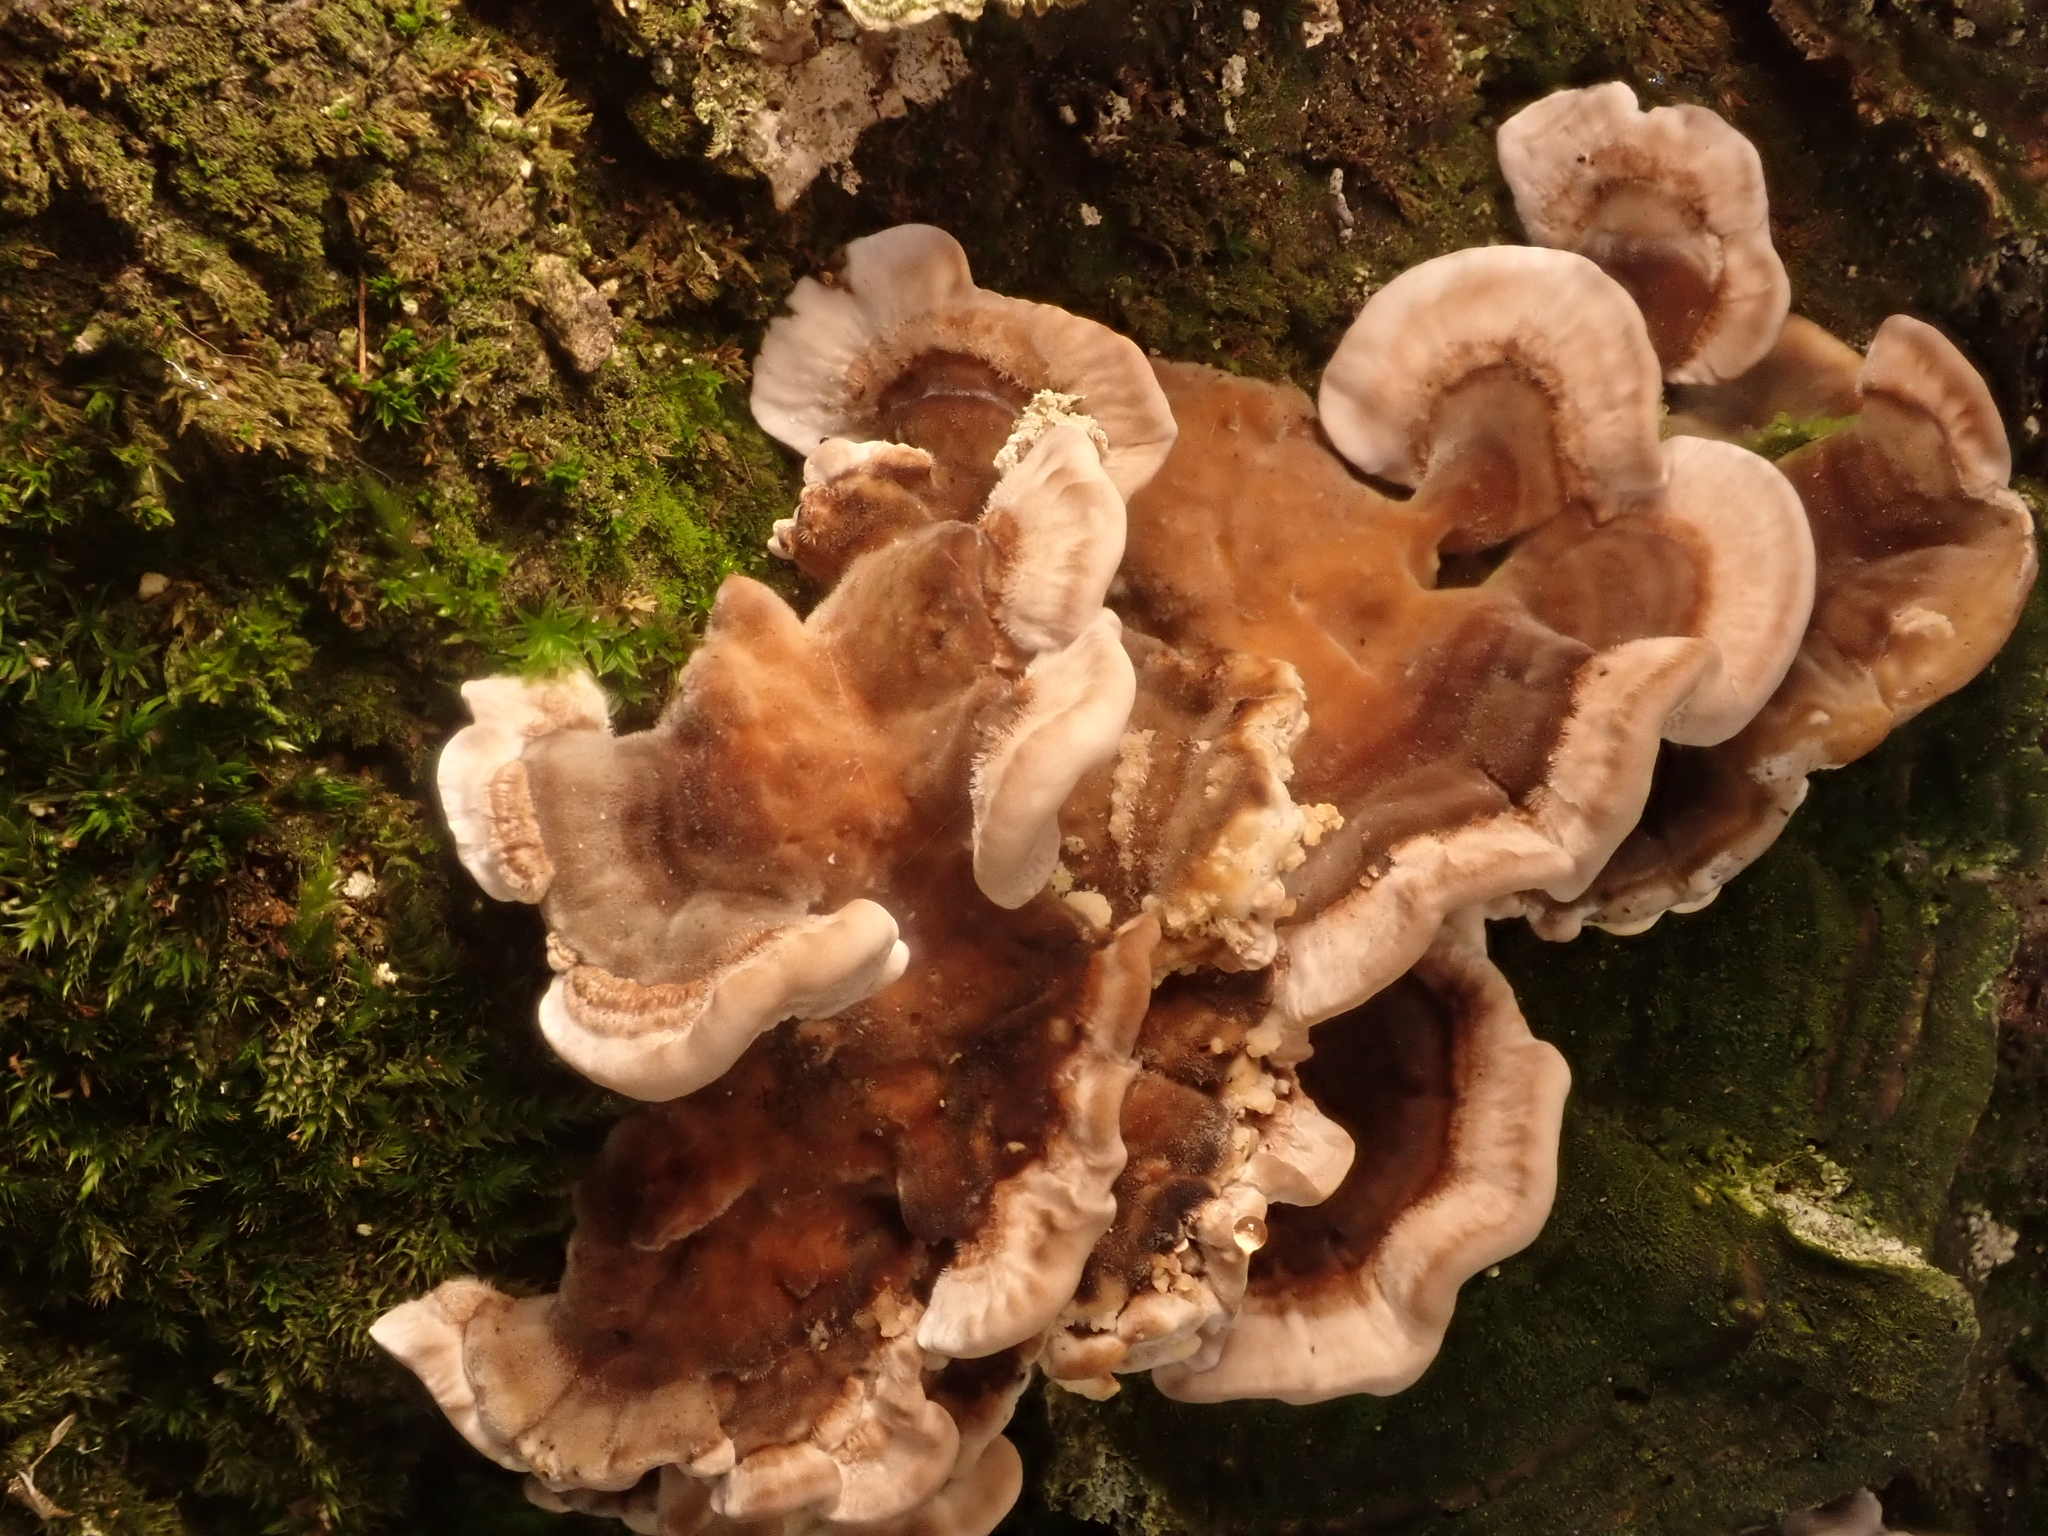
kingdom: Fungi
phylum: Basidiomycota
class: Agaricomycetes
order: Polyporales
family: Polyporaceae
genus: Trametes
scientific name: Trametes versicolor
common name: Turkeytail
